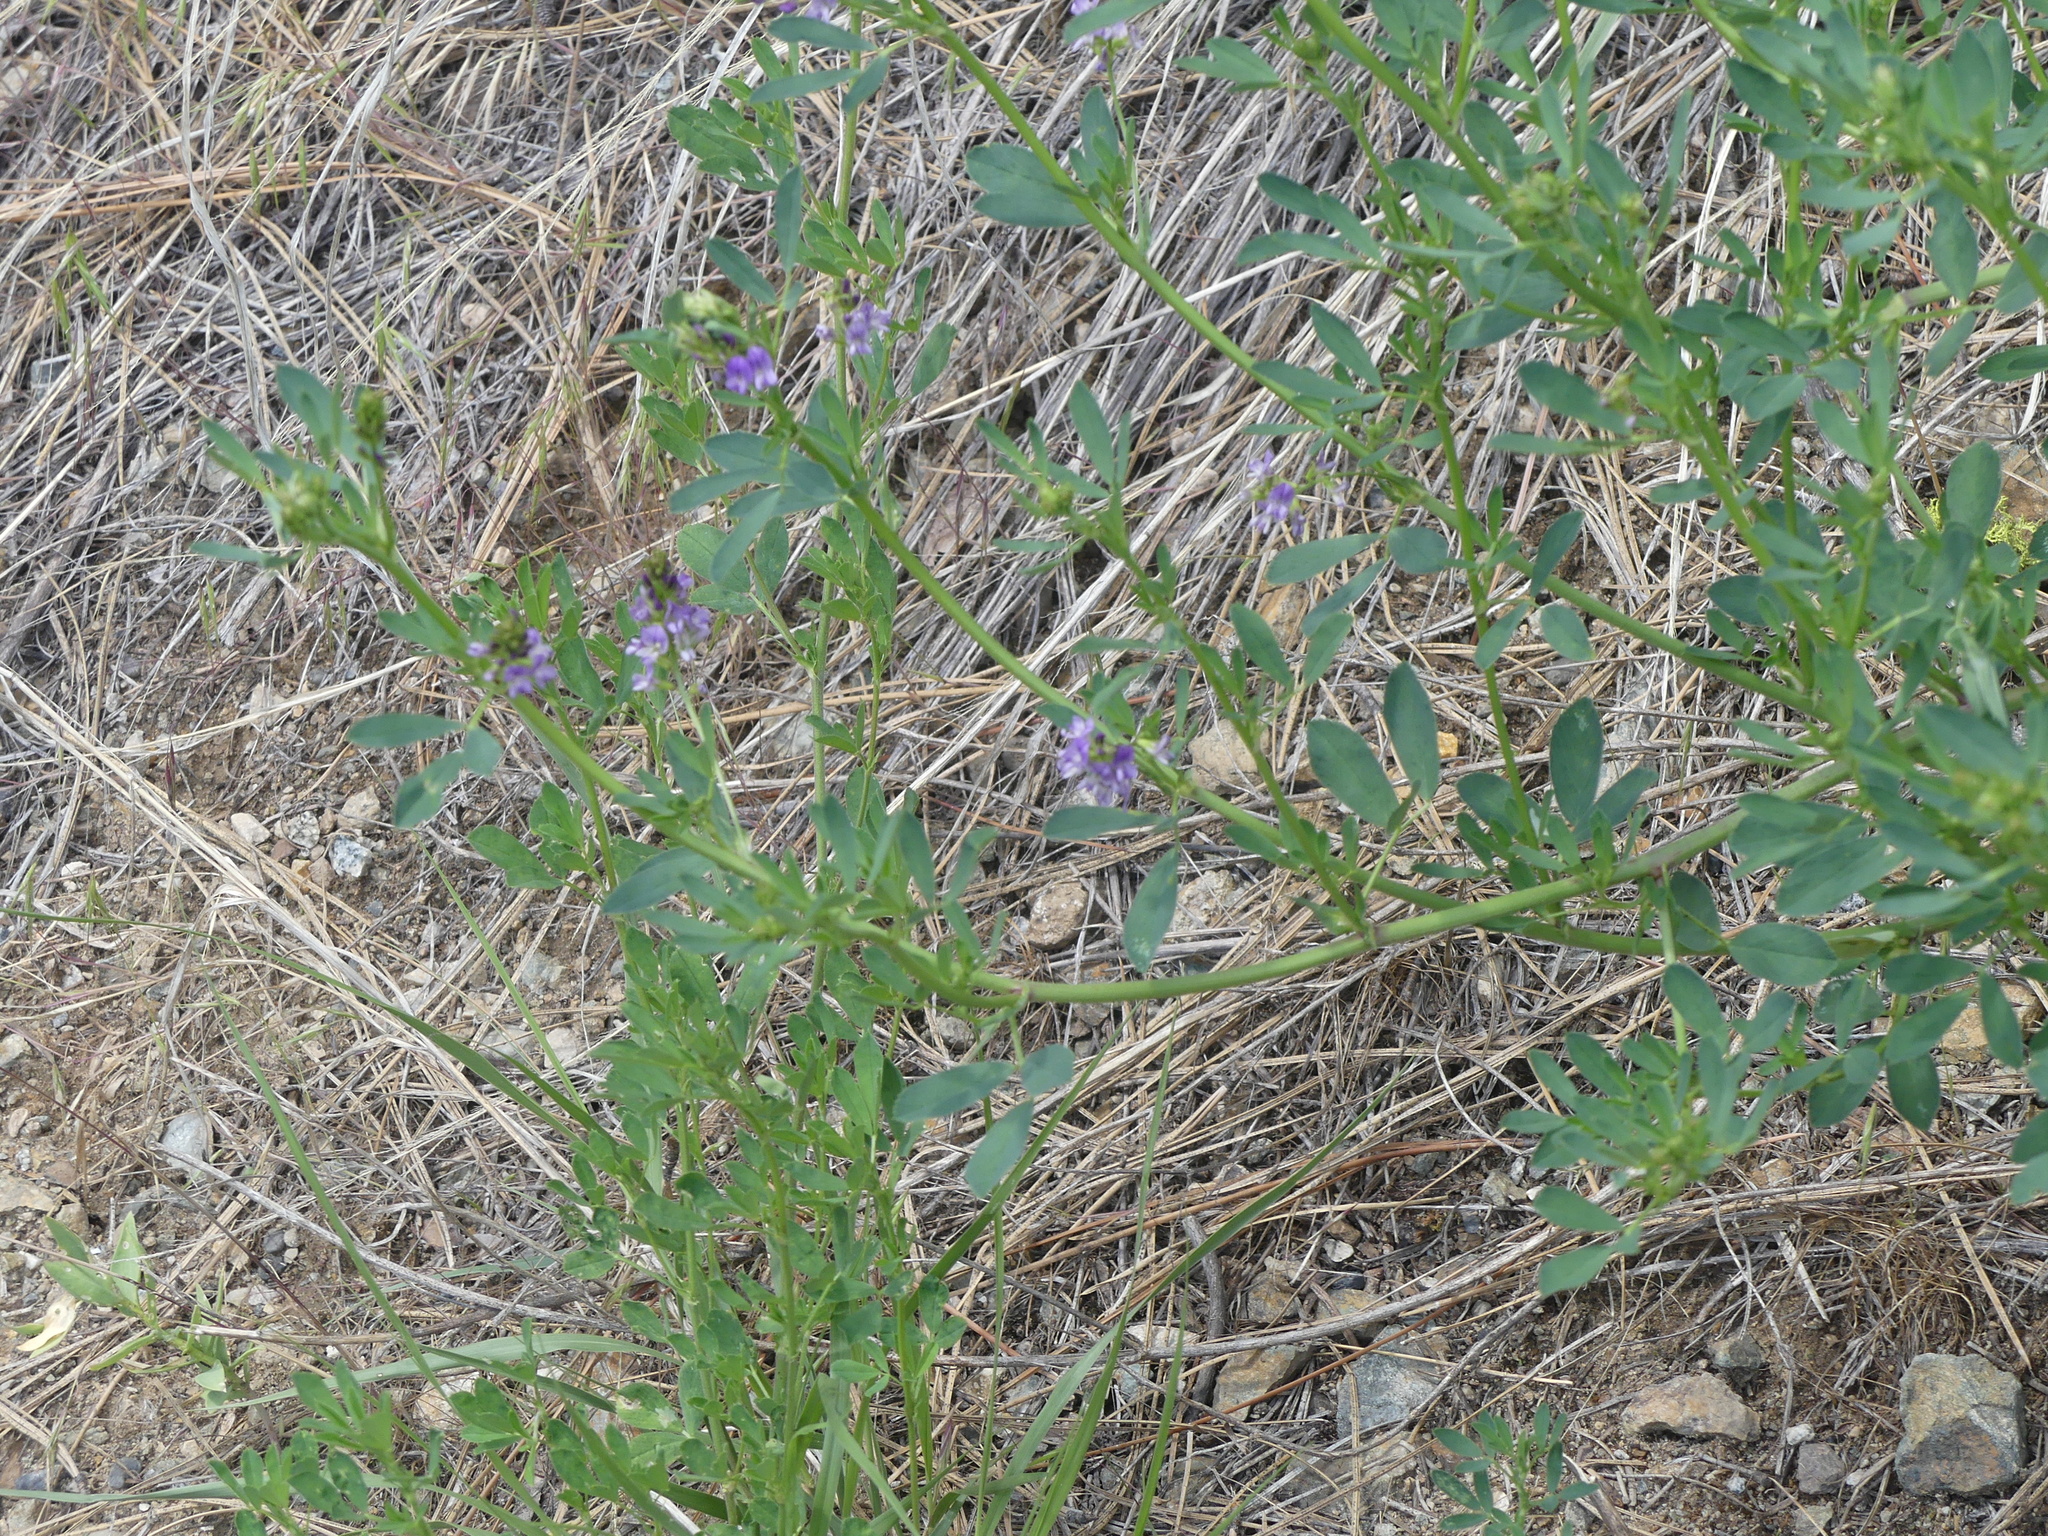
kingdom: Plantae
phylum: Tracheophyta
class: Magnoliopsida
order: Fabales
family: Fabaceae
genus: Medicago
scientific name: Medicago sativa
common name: Alfalfa
